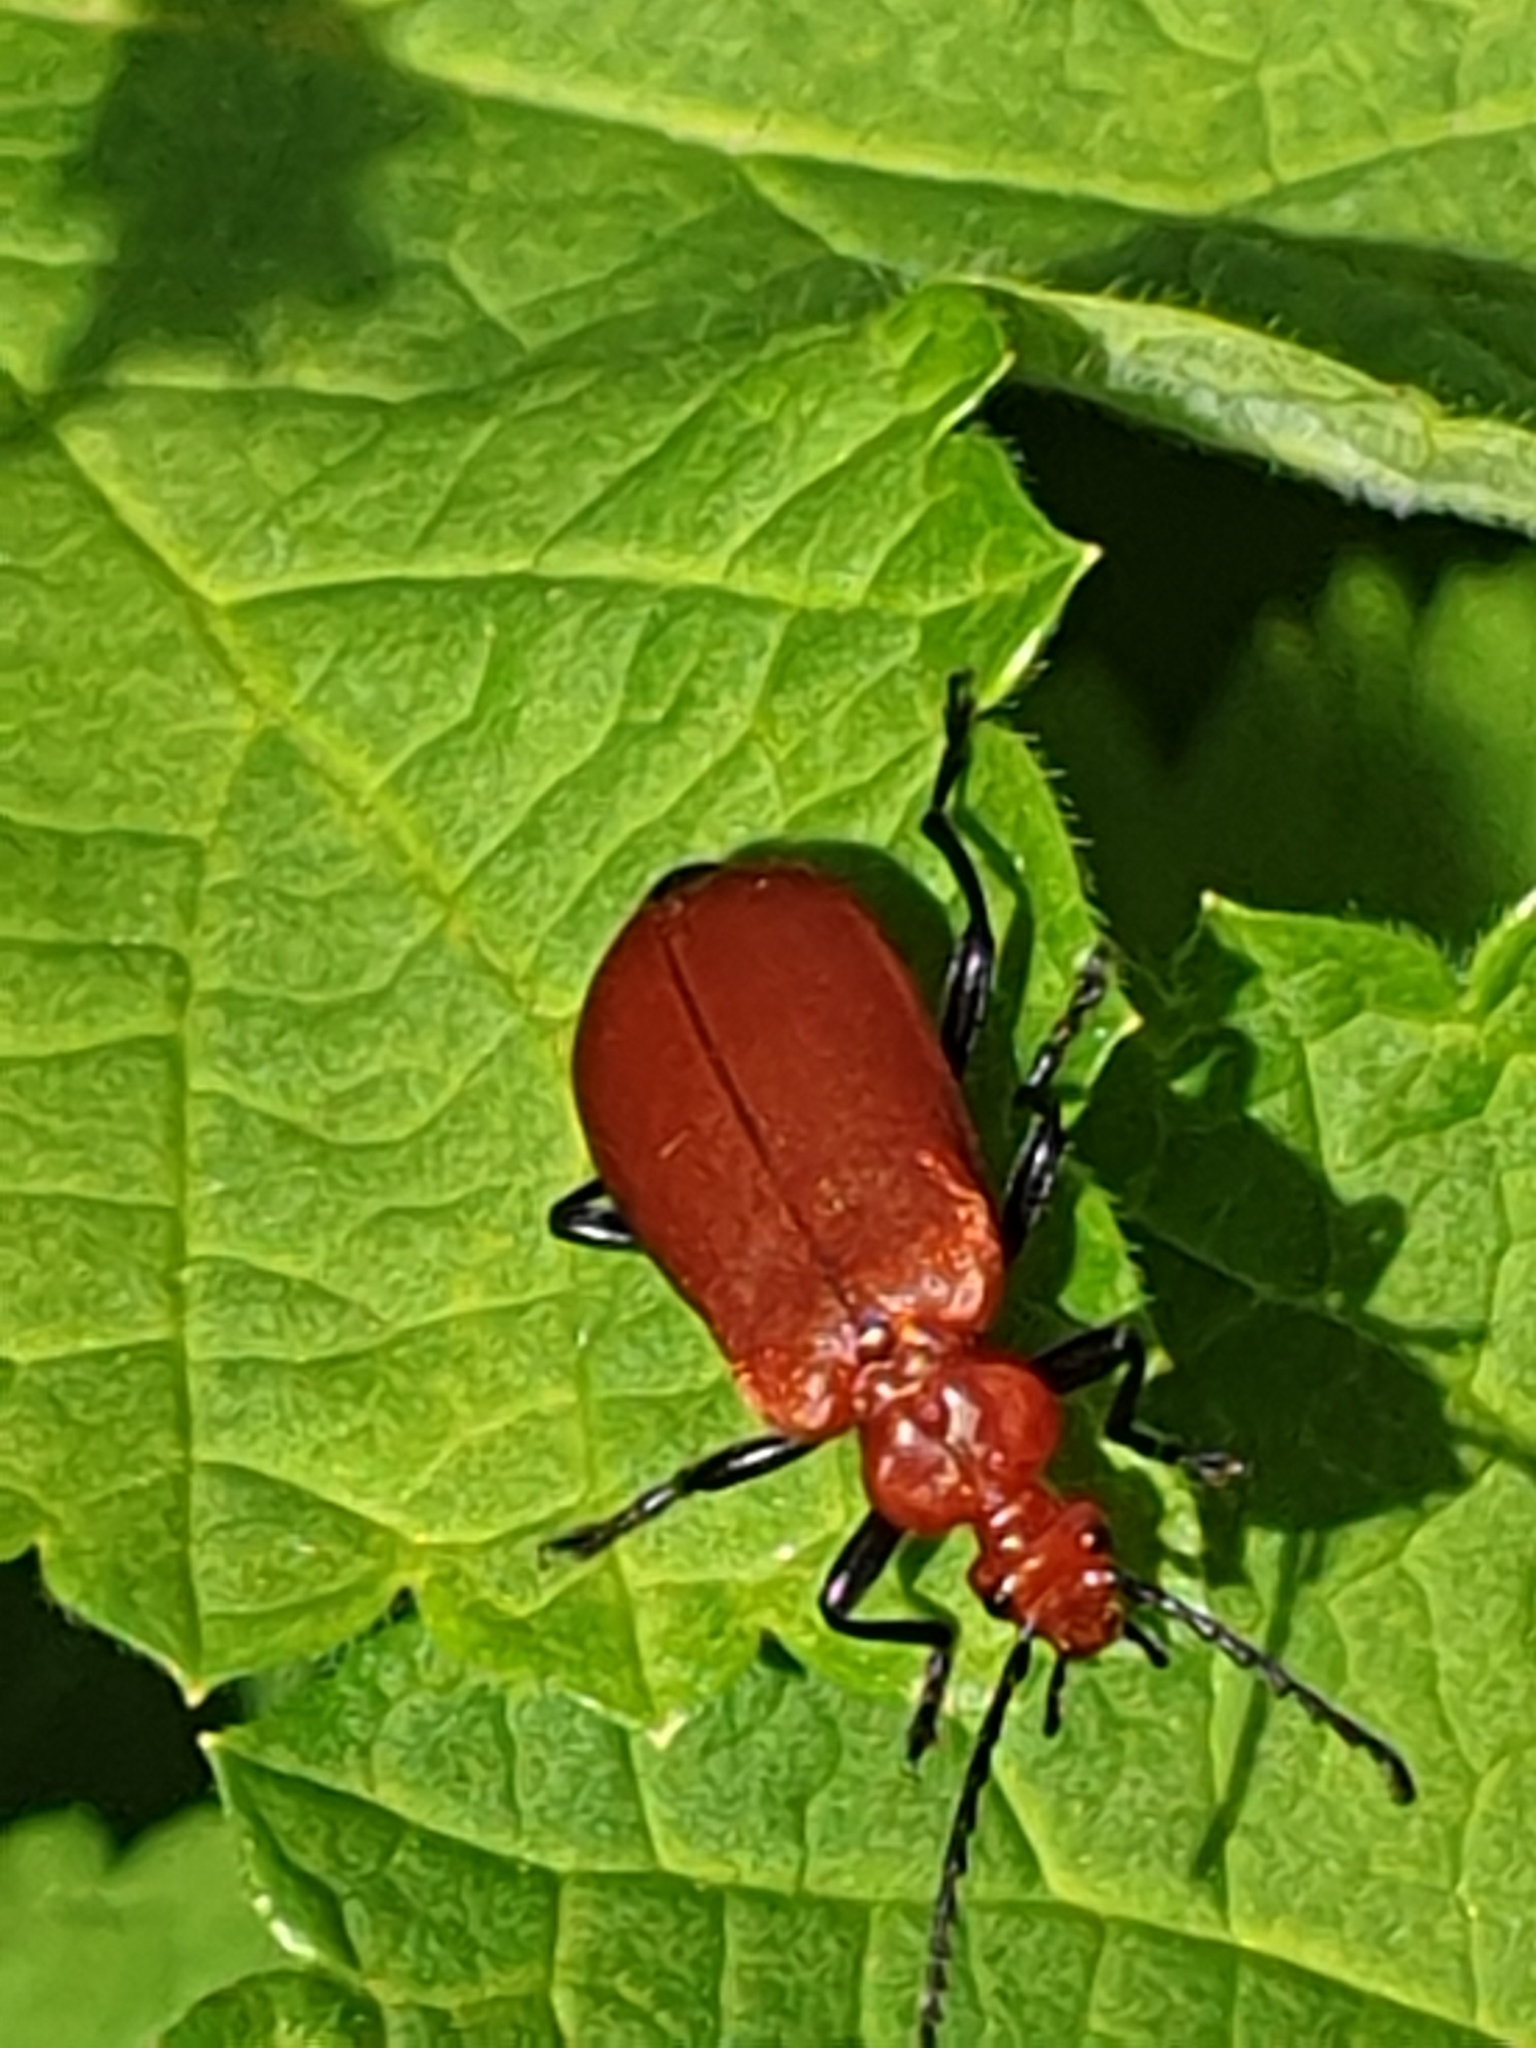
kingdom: Animalia
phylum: Arthropoda
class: Insecta
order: Coleoptera
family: Pyrochroidae
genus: Pyrochroa
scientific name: Pyrochroa serraticornis
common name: Red-headed cardinal beetle
